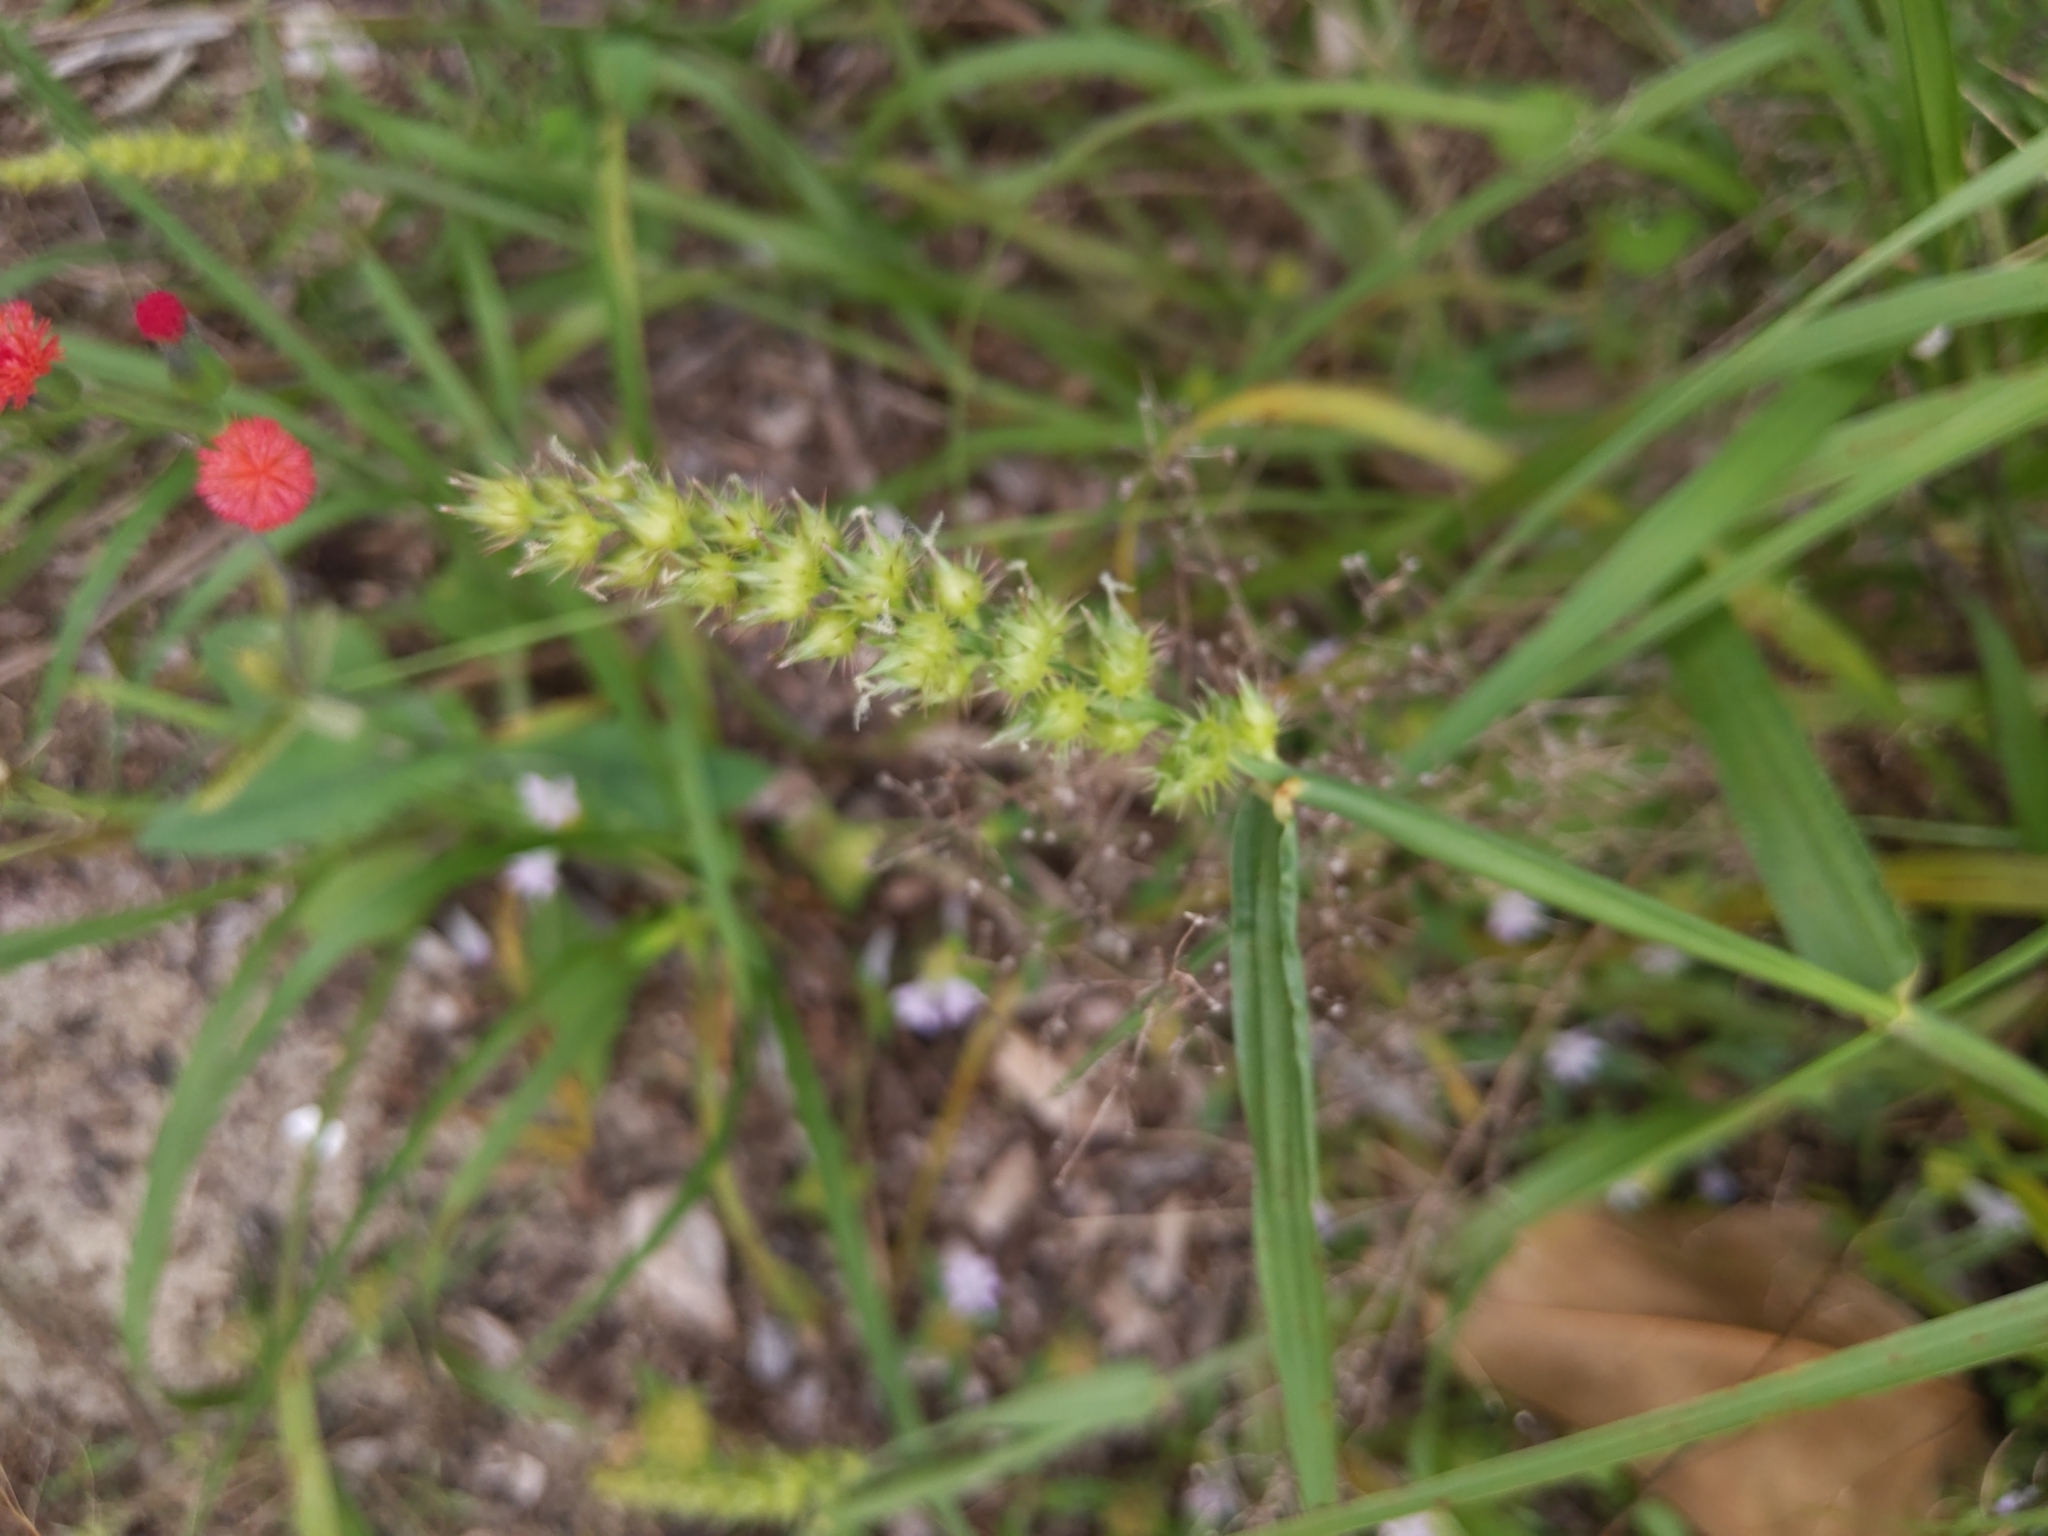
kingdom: Plantae
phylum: Tracheophyta
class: Liliopsida
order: Poales
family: Poaceae
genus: Cenchrus
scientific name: Cenchrus echinatus
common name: Southern sandbur
